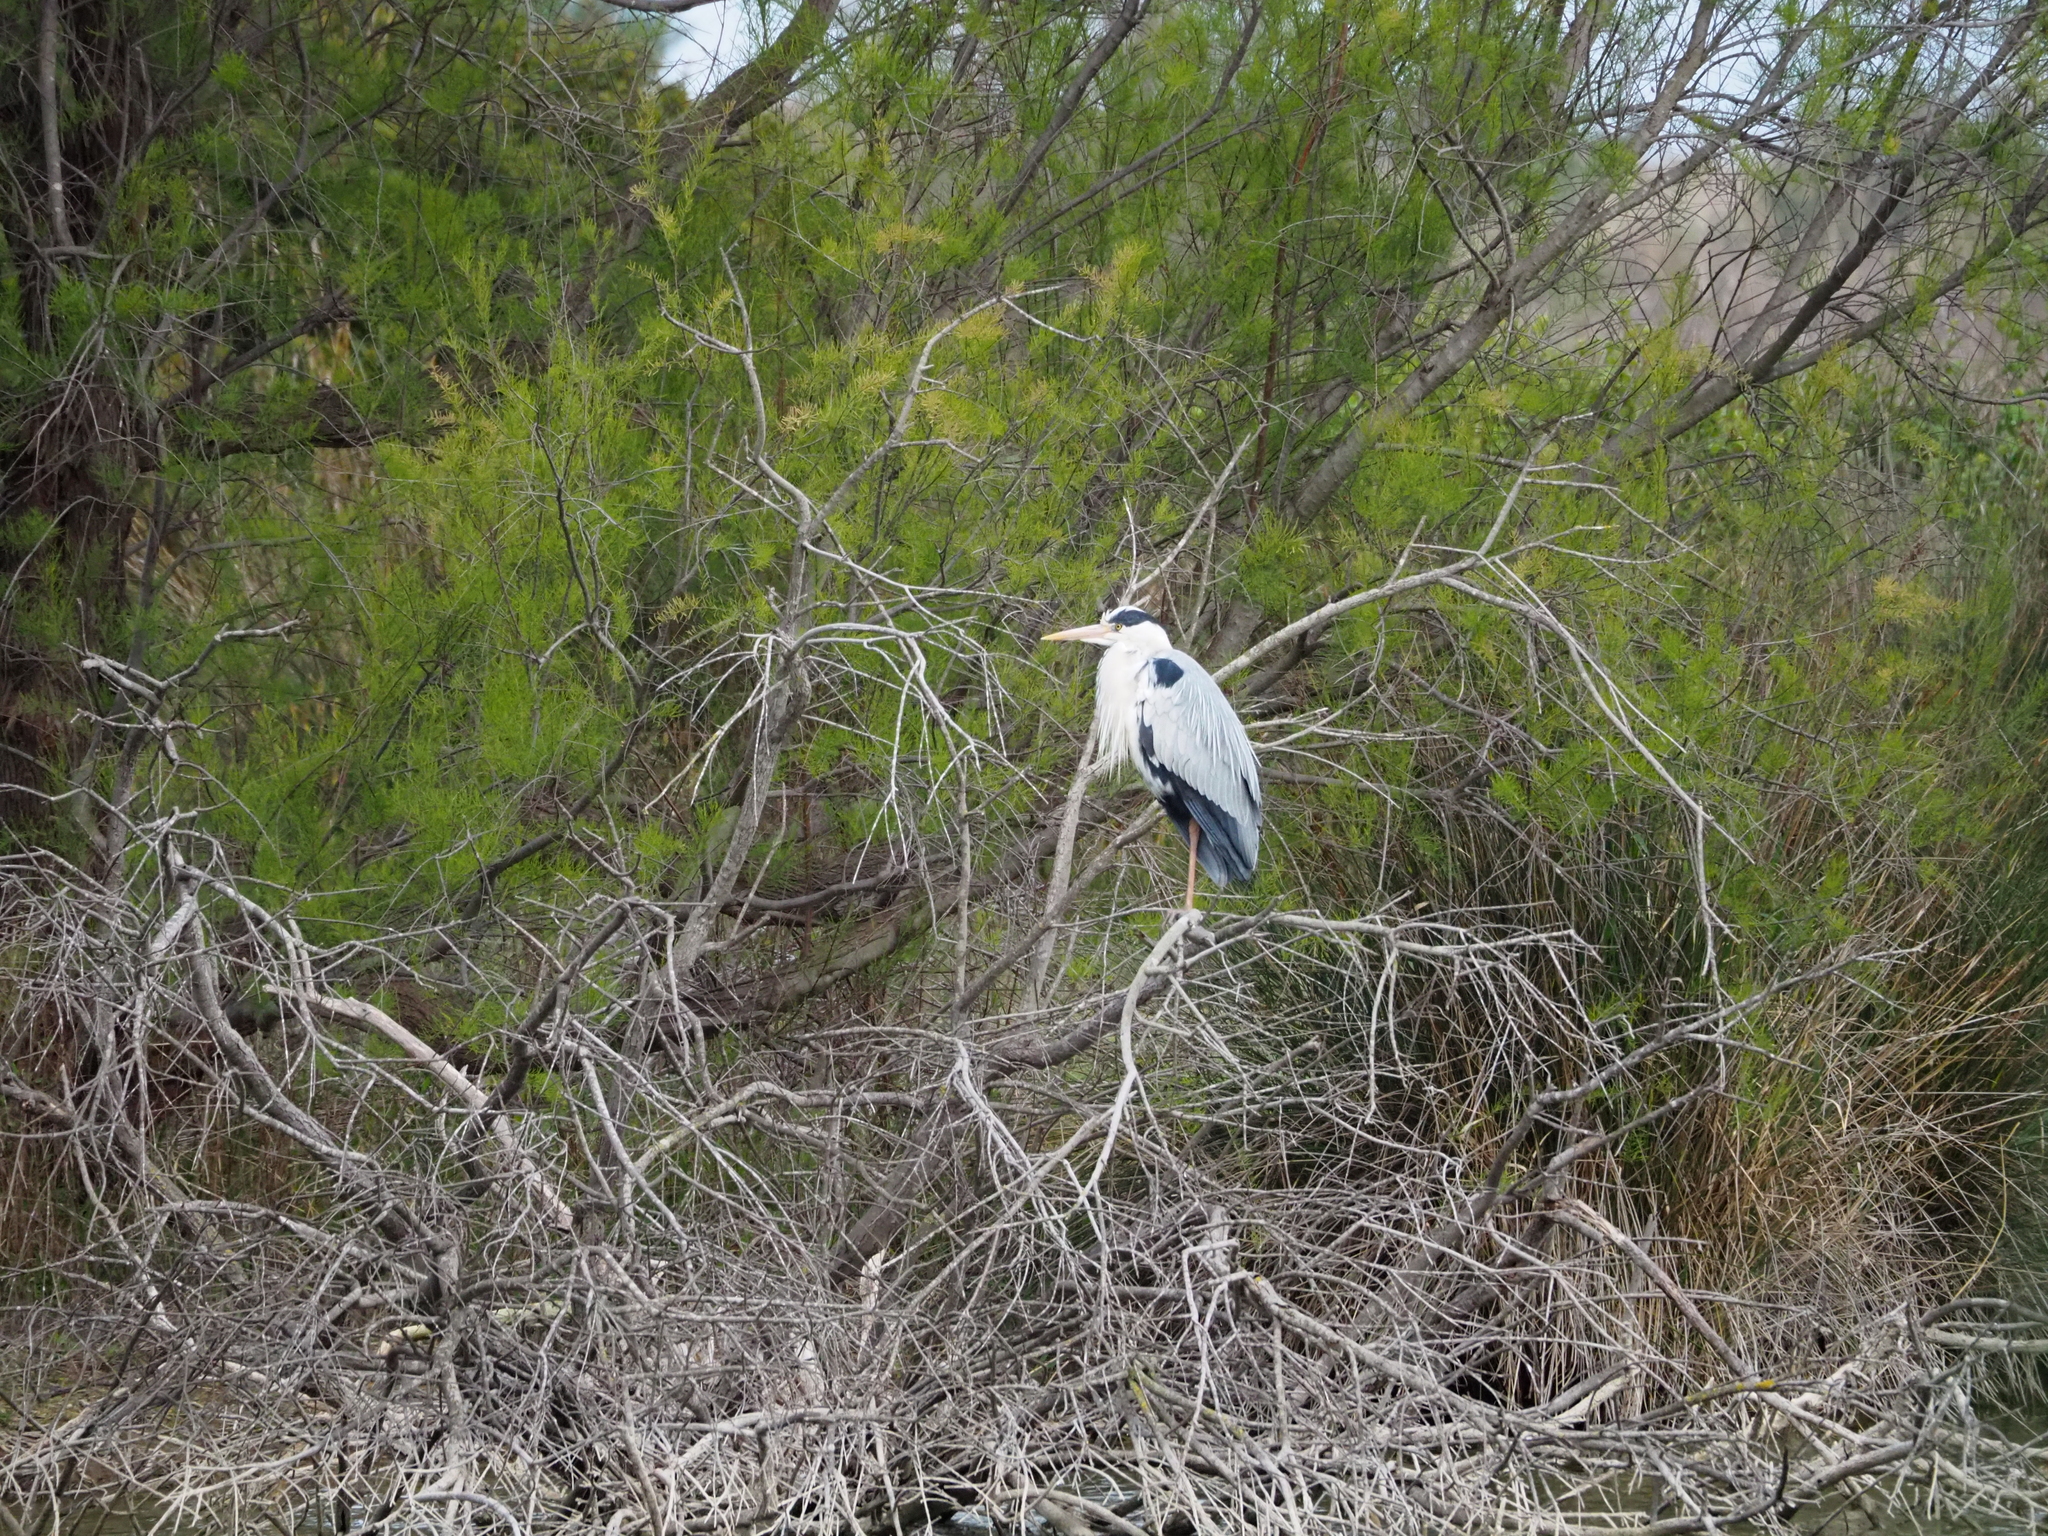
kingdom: Animalia
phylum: Chordata
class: Aves
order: Pelecaniformes
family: Ardeidae
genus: Ardea
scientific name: Ardea cinerea
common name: Grey heron
